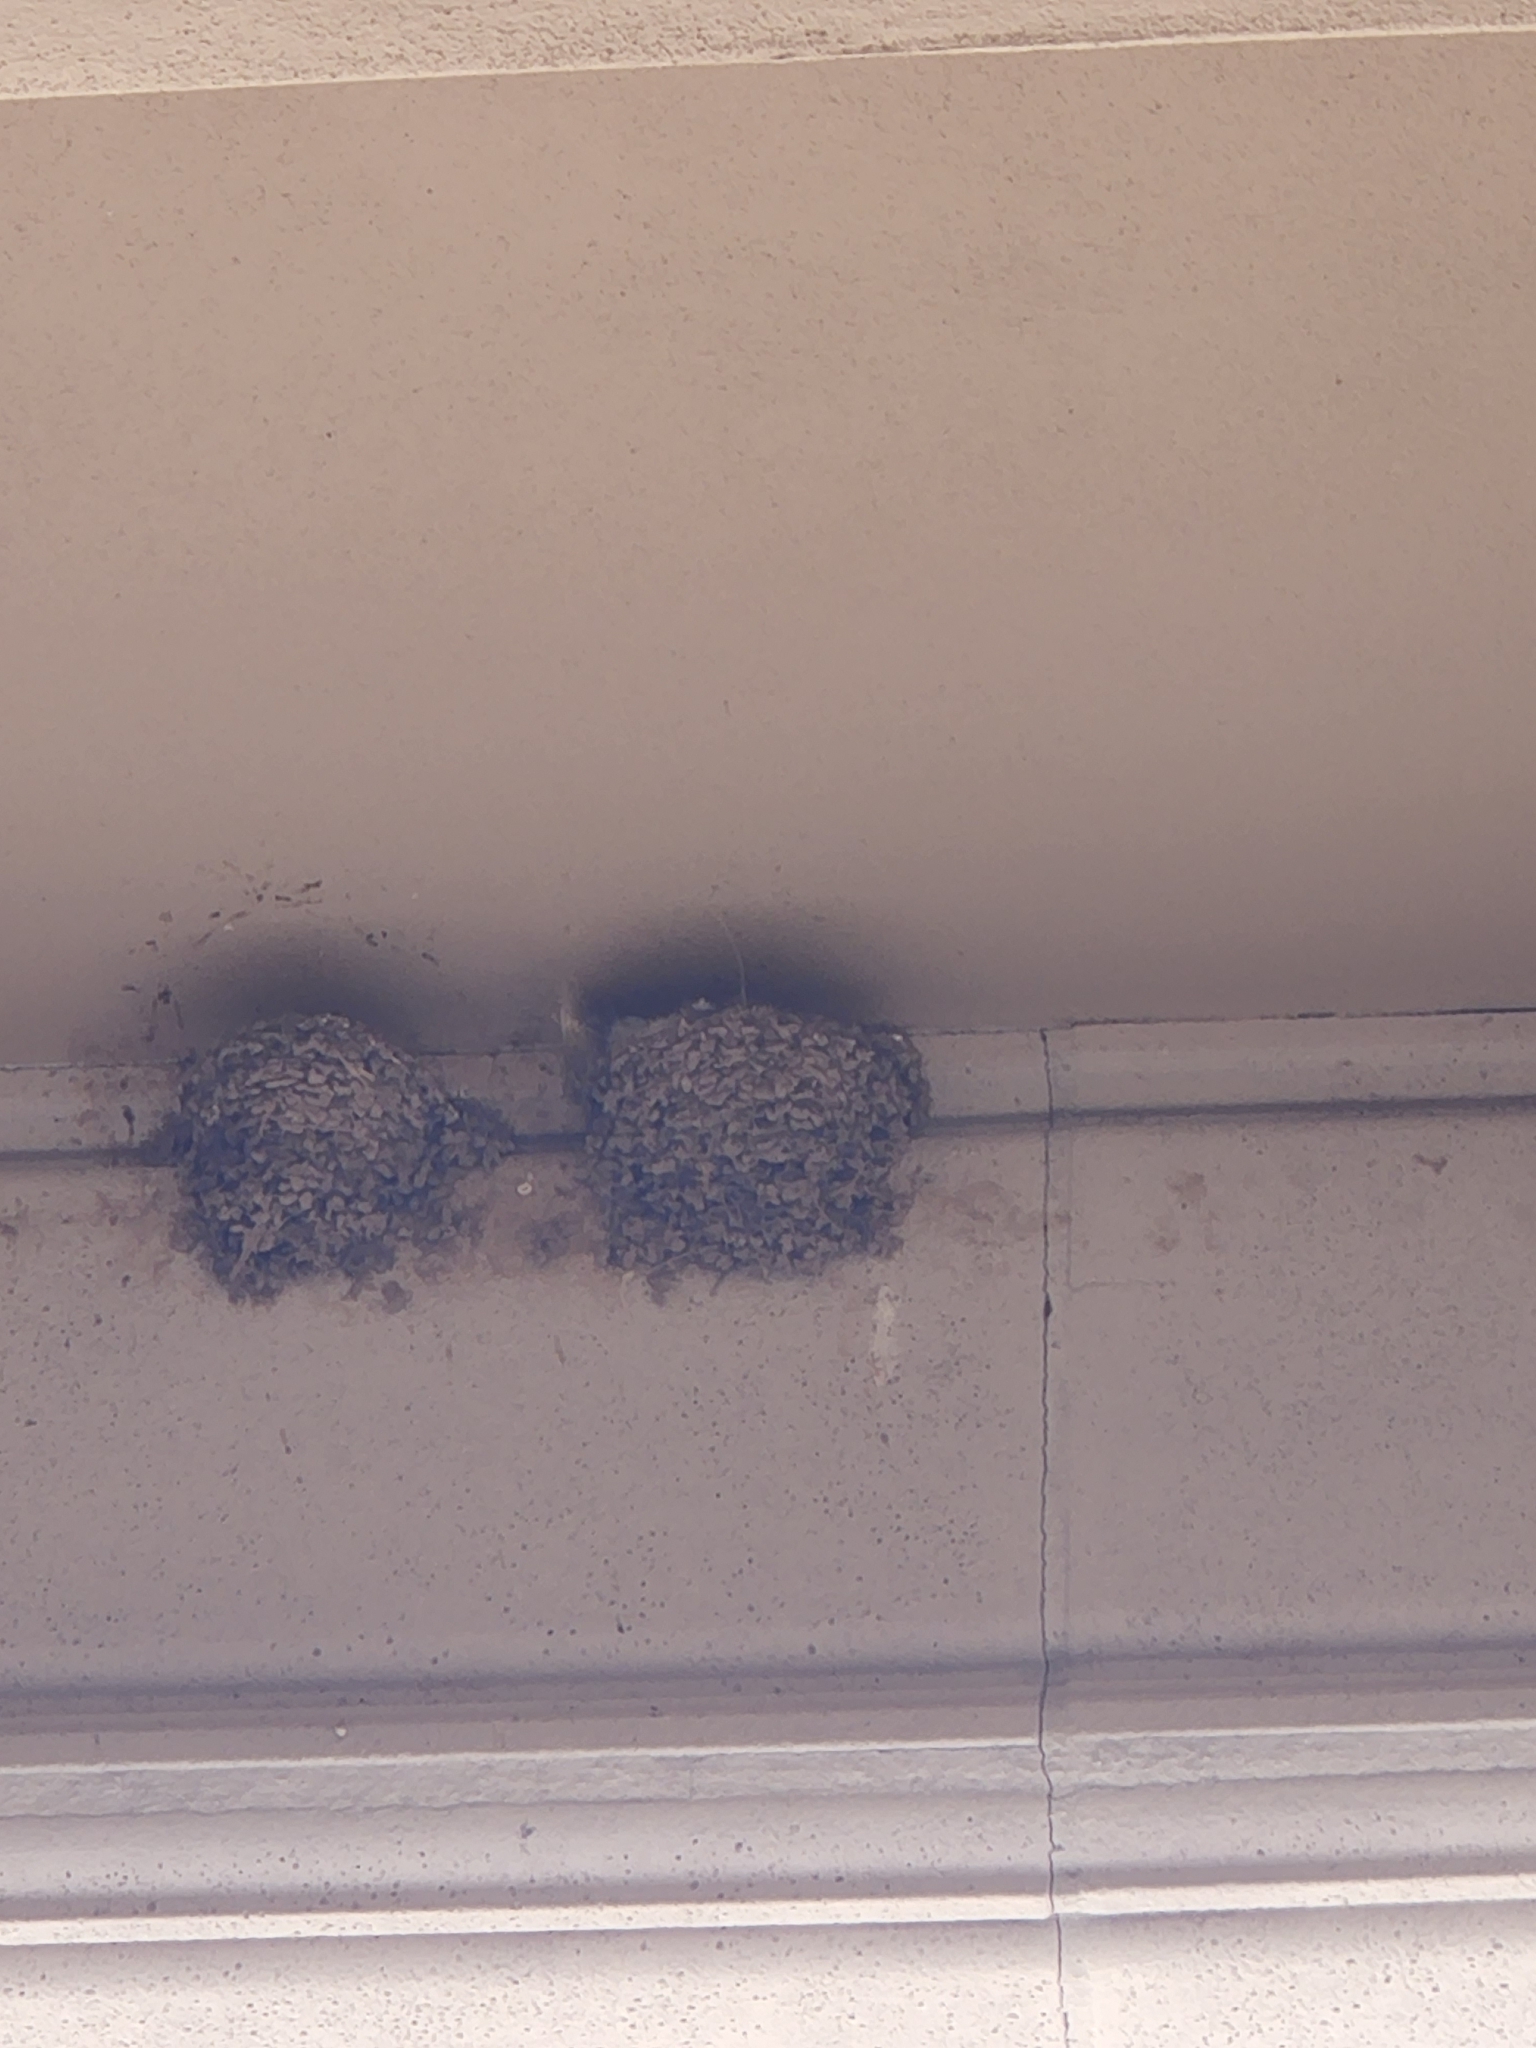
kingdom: Animalia
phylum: Chordata
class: Aves
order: Passeriformes
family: Hirundinidae
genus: Hirundo
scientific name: Hirundo rustica
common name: Barn swallow
